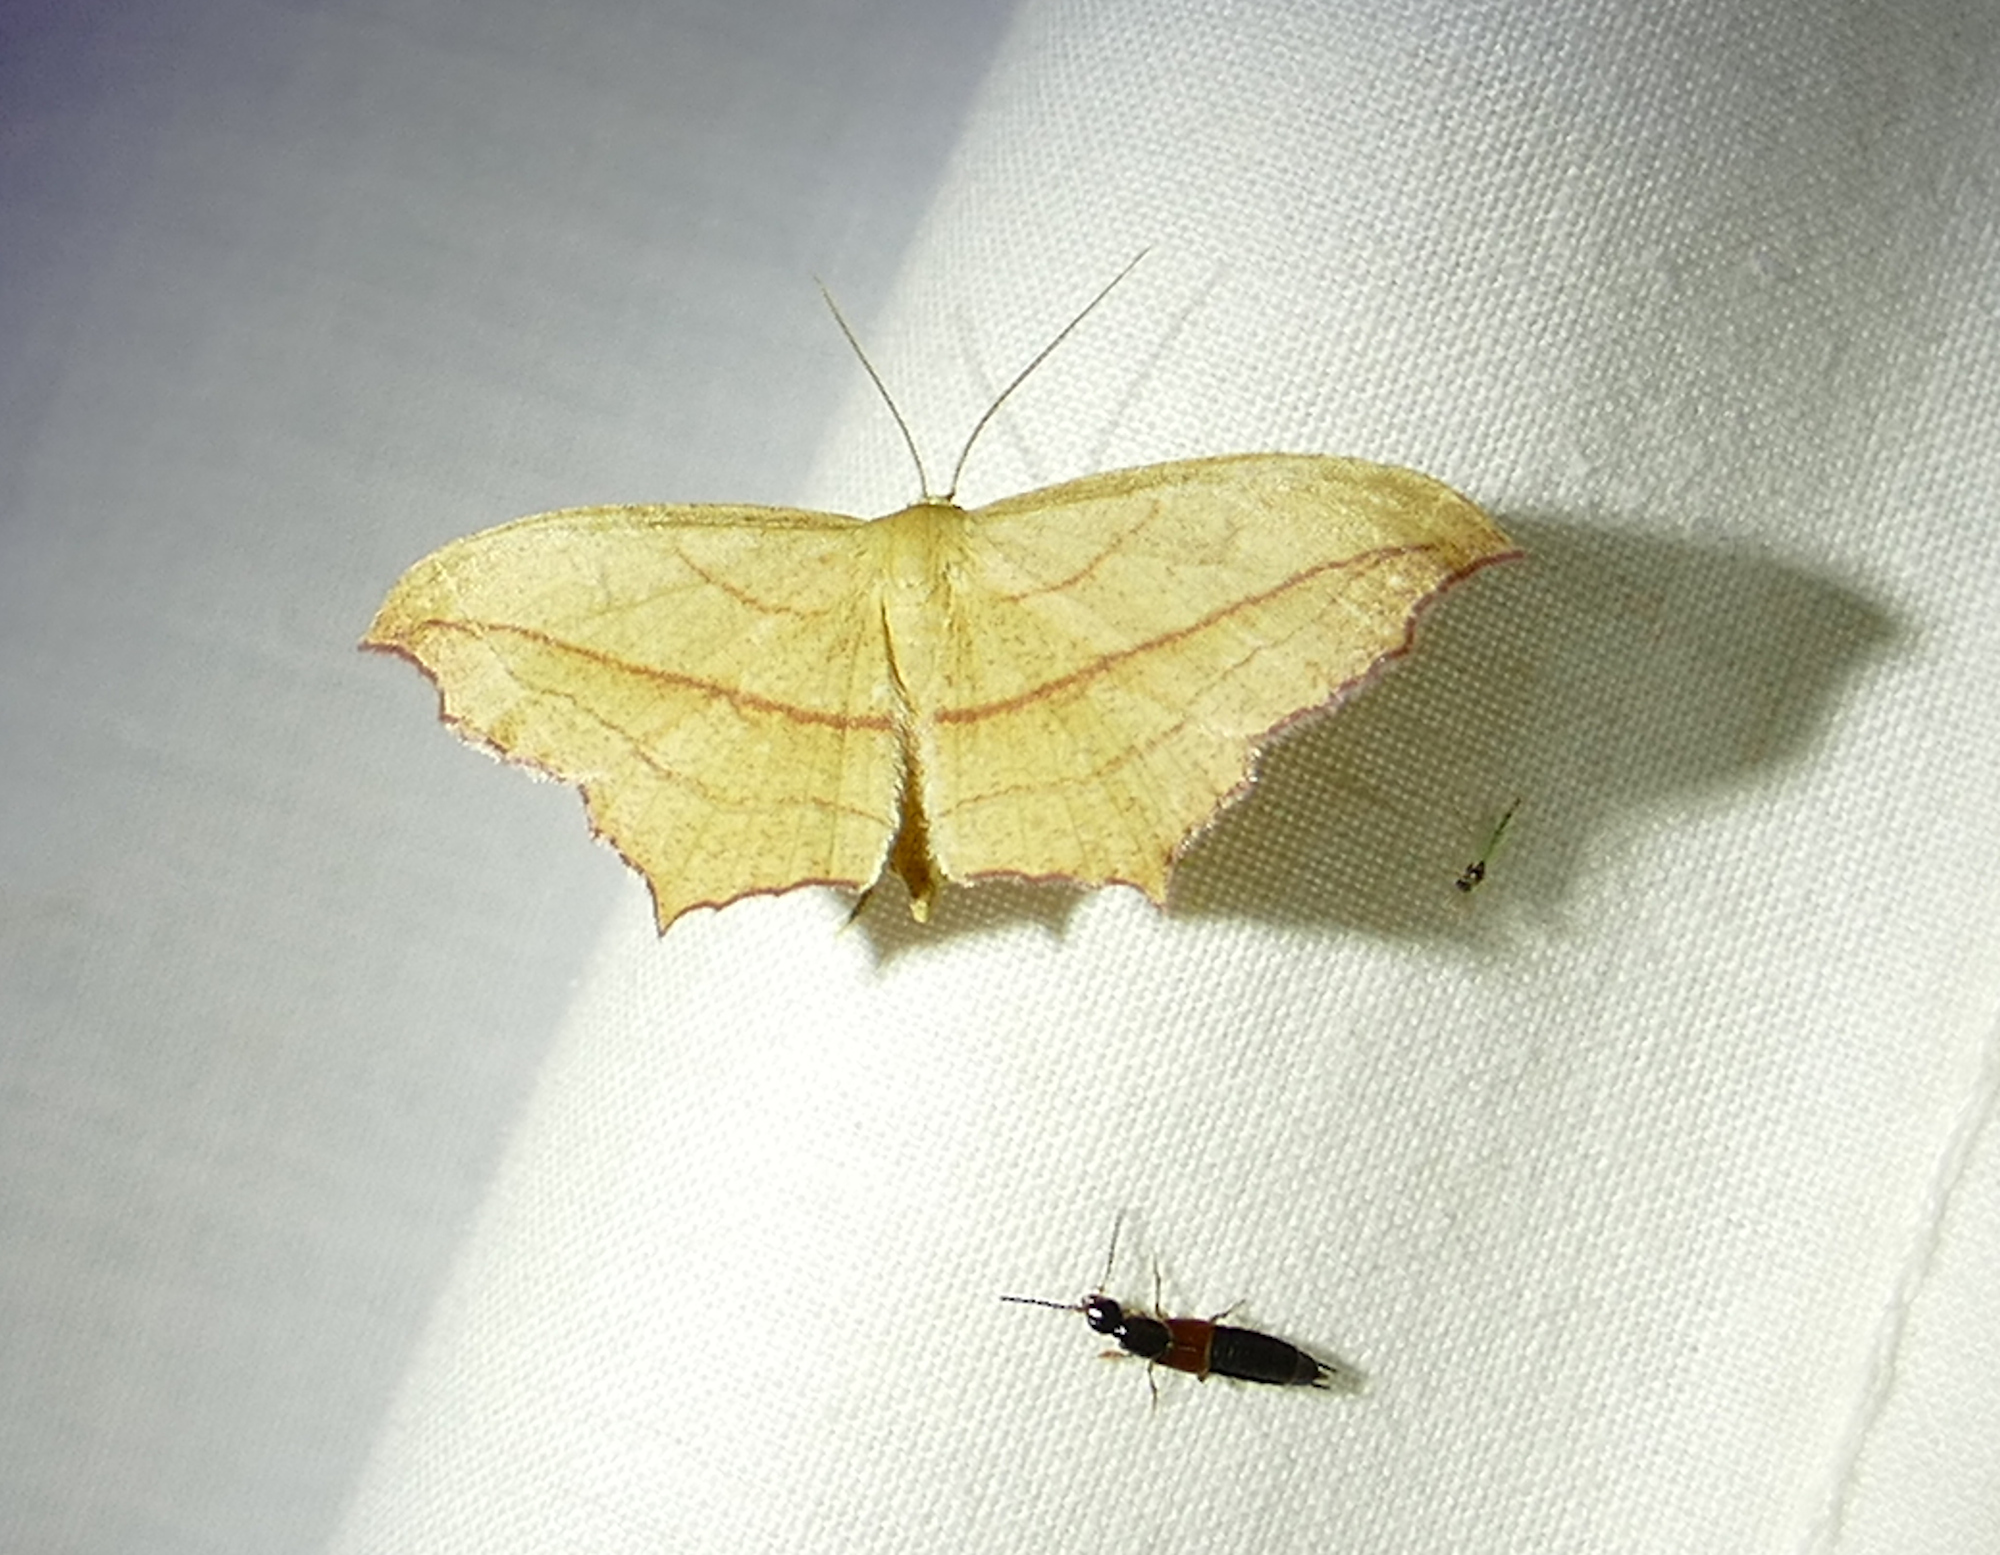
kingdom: Animalia
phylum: Arthropoda
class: Insecta
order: Lepidoptera
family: Geometridae
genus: Timandra
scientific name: Timandra amaturaria
